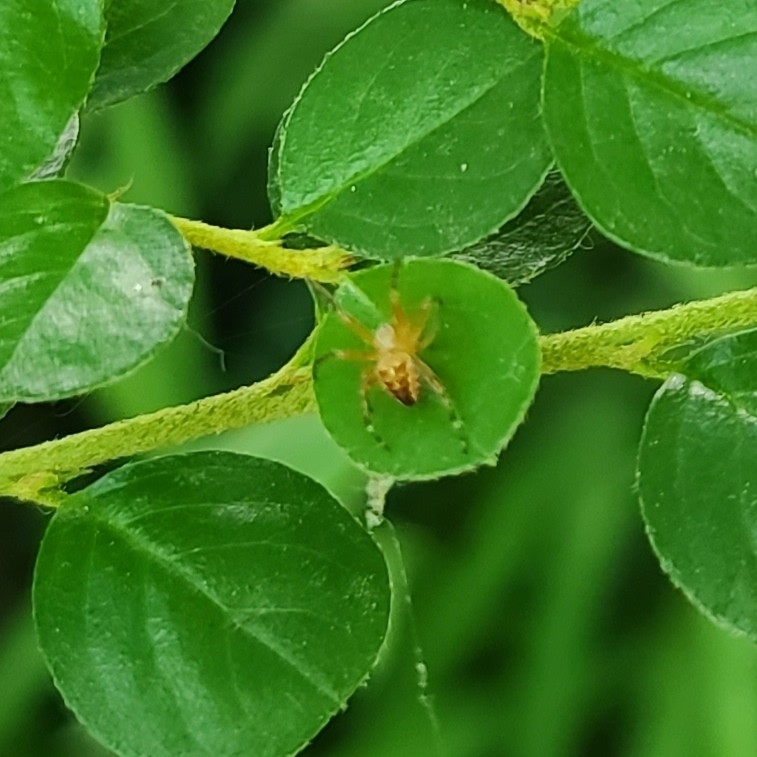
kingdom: Animalia
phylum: Arthropoda
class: Arachnida
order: Araneae
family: Araneidae
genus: Araneus
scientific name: Araneus diadematus
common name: Cross orbweaver
